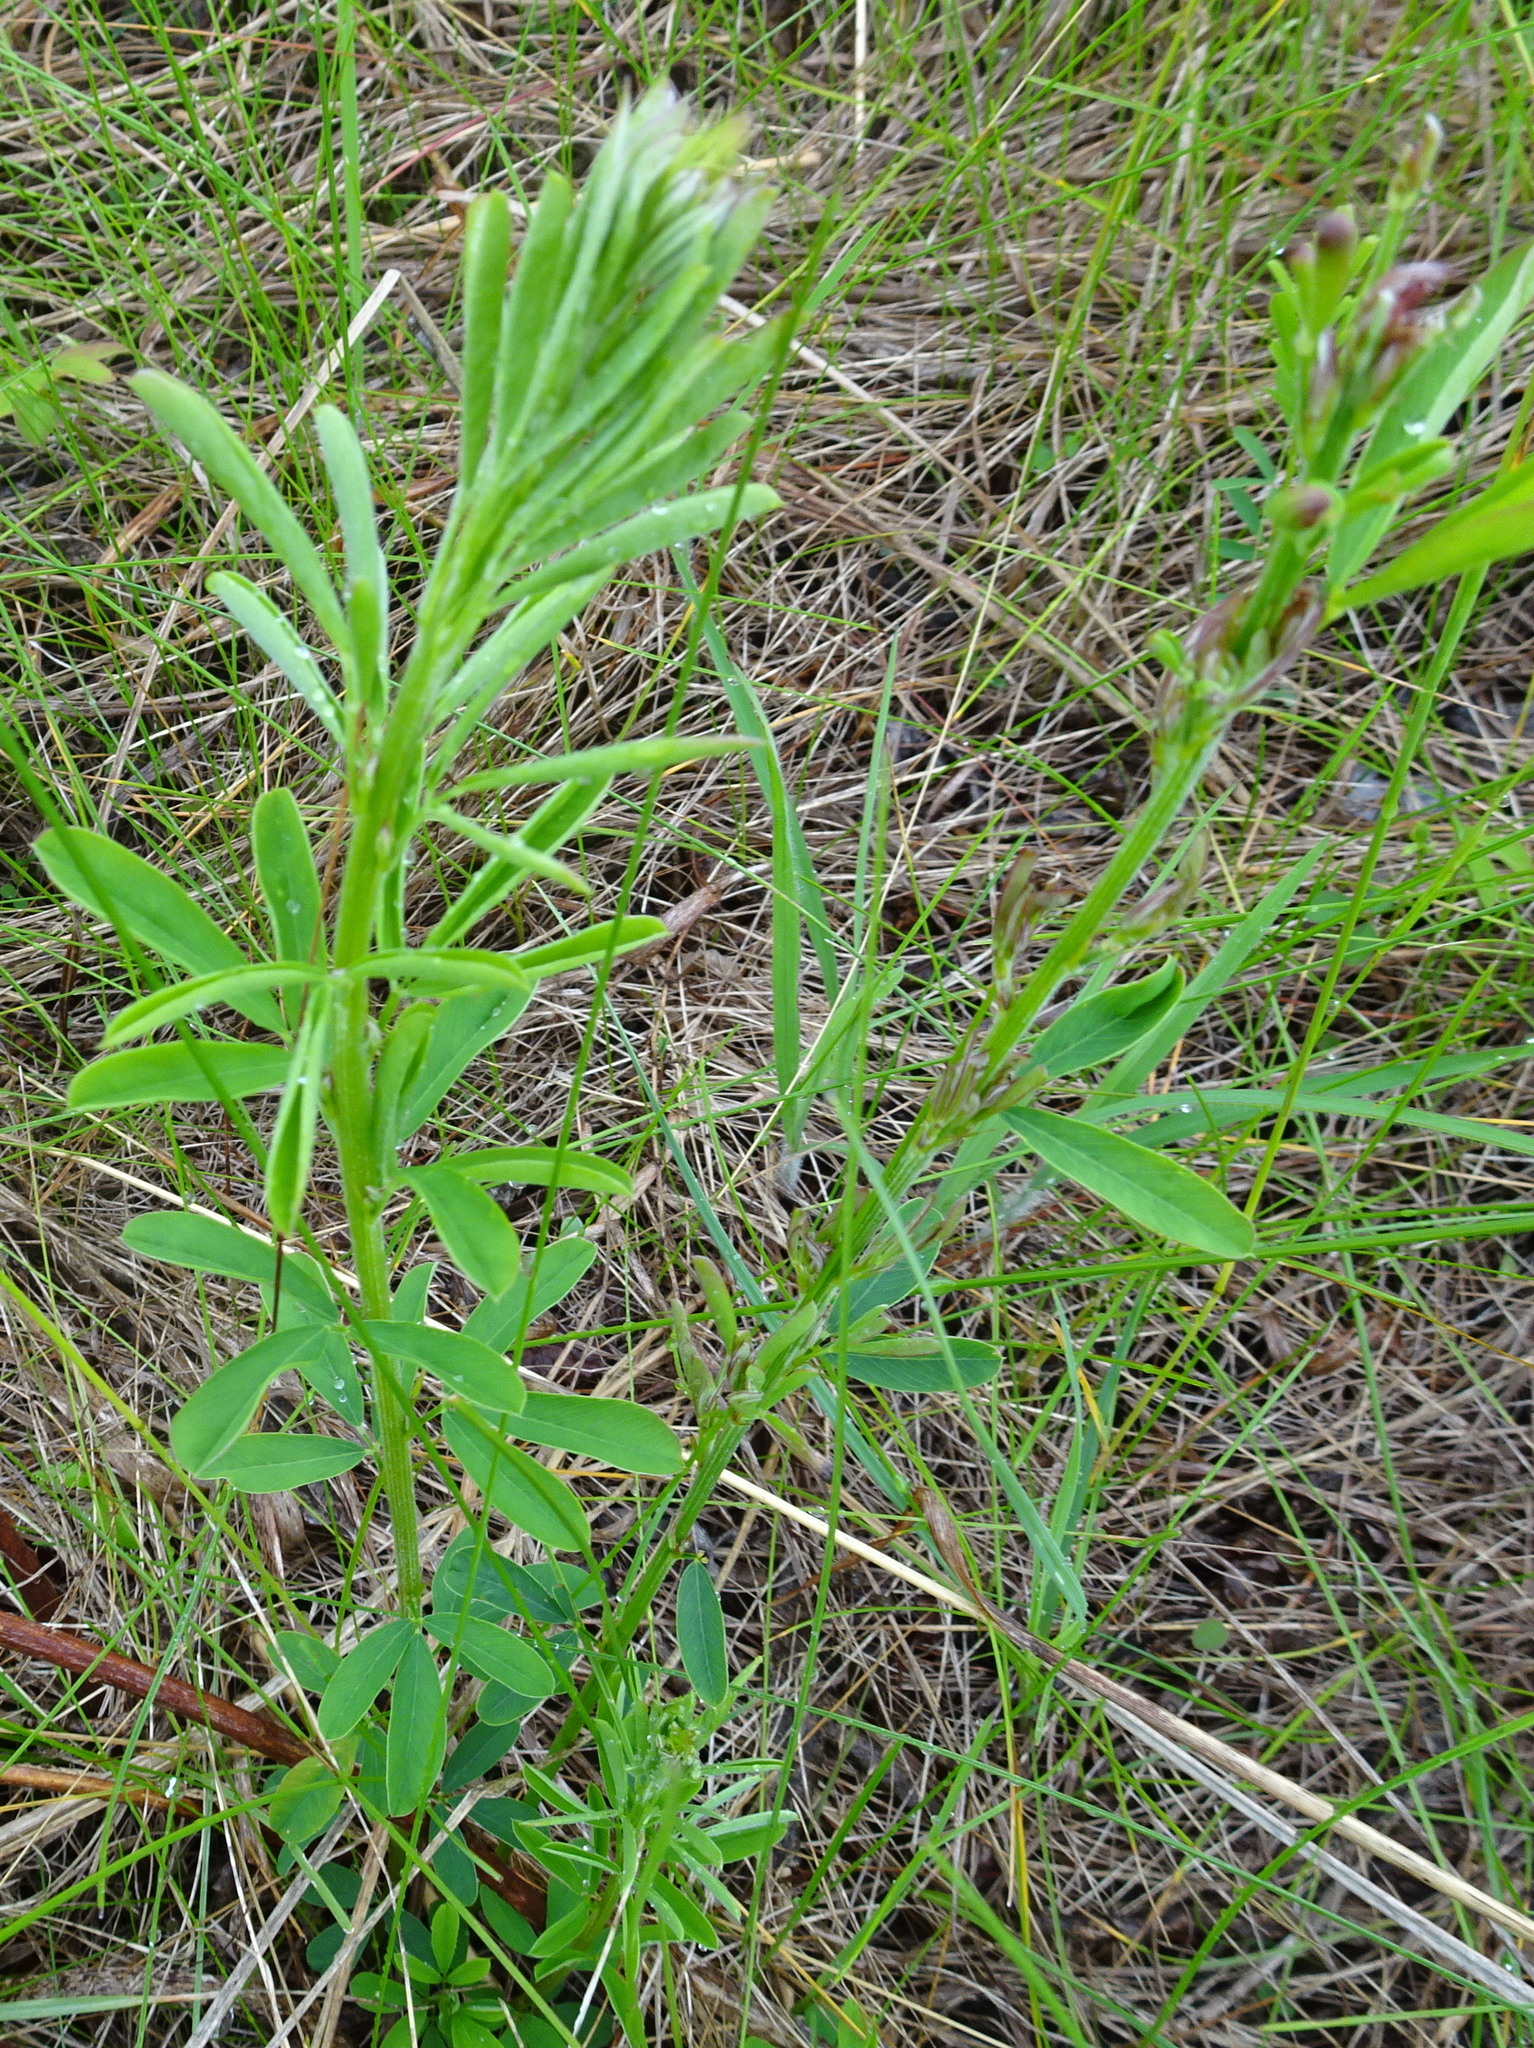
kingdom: Plantae
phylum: Tracheophyta
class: Magnoliopsida
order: Fabales
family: Fabaceae
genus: Lespedeza
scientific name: Lespedeza cuneata
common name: Chinese bush-clover
